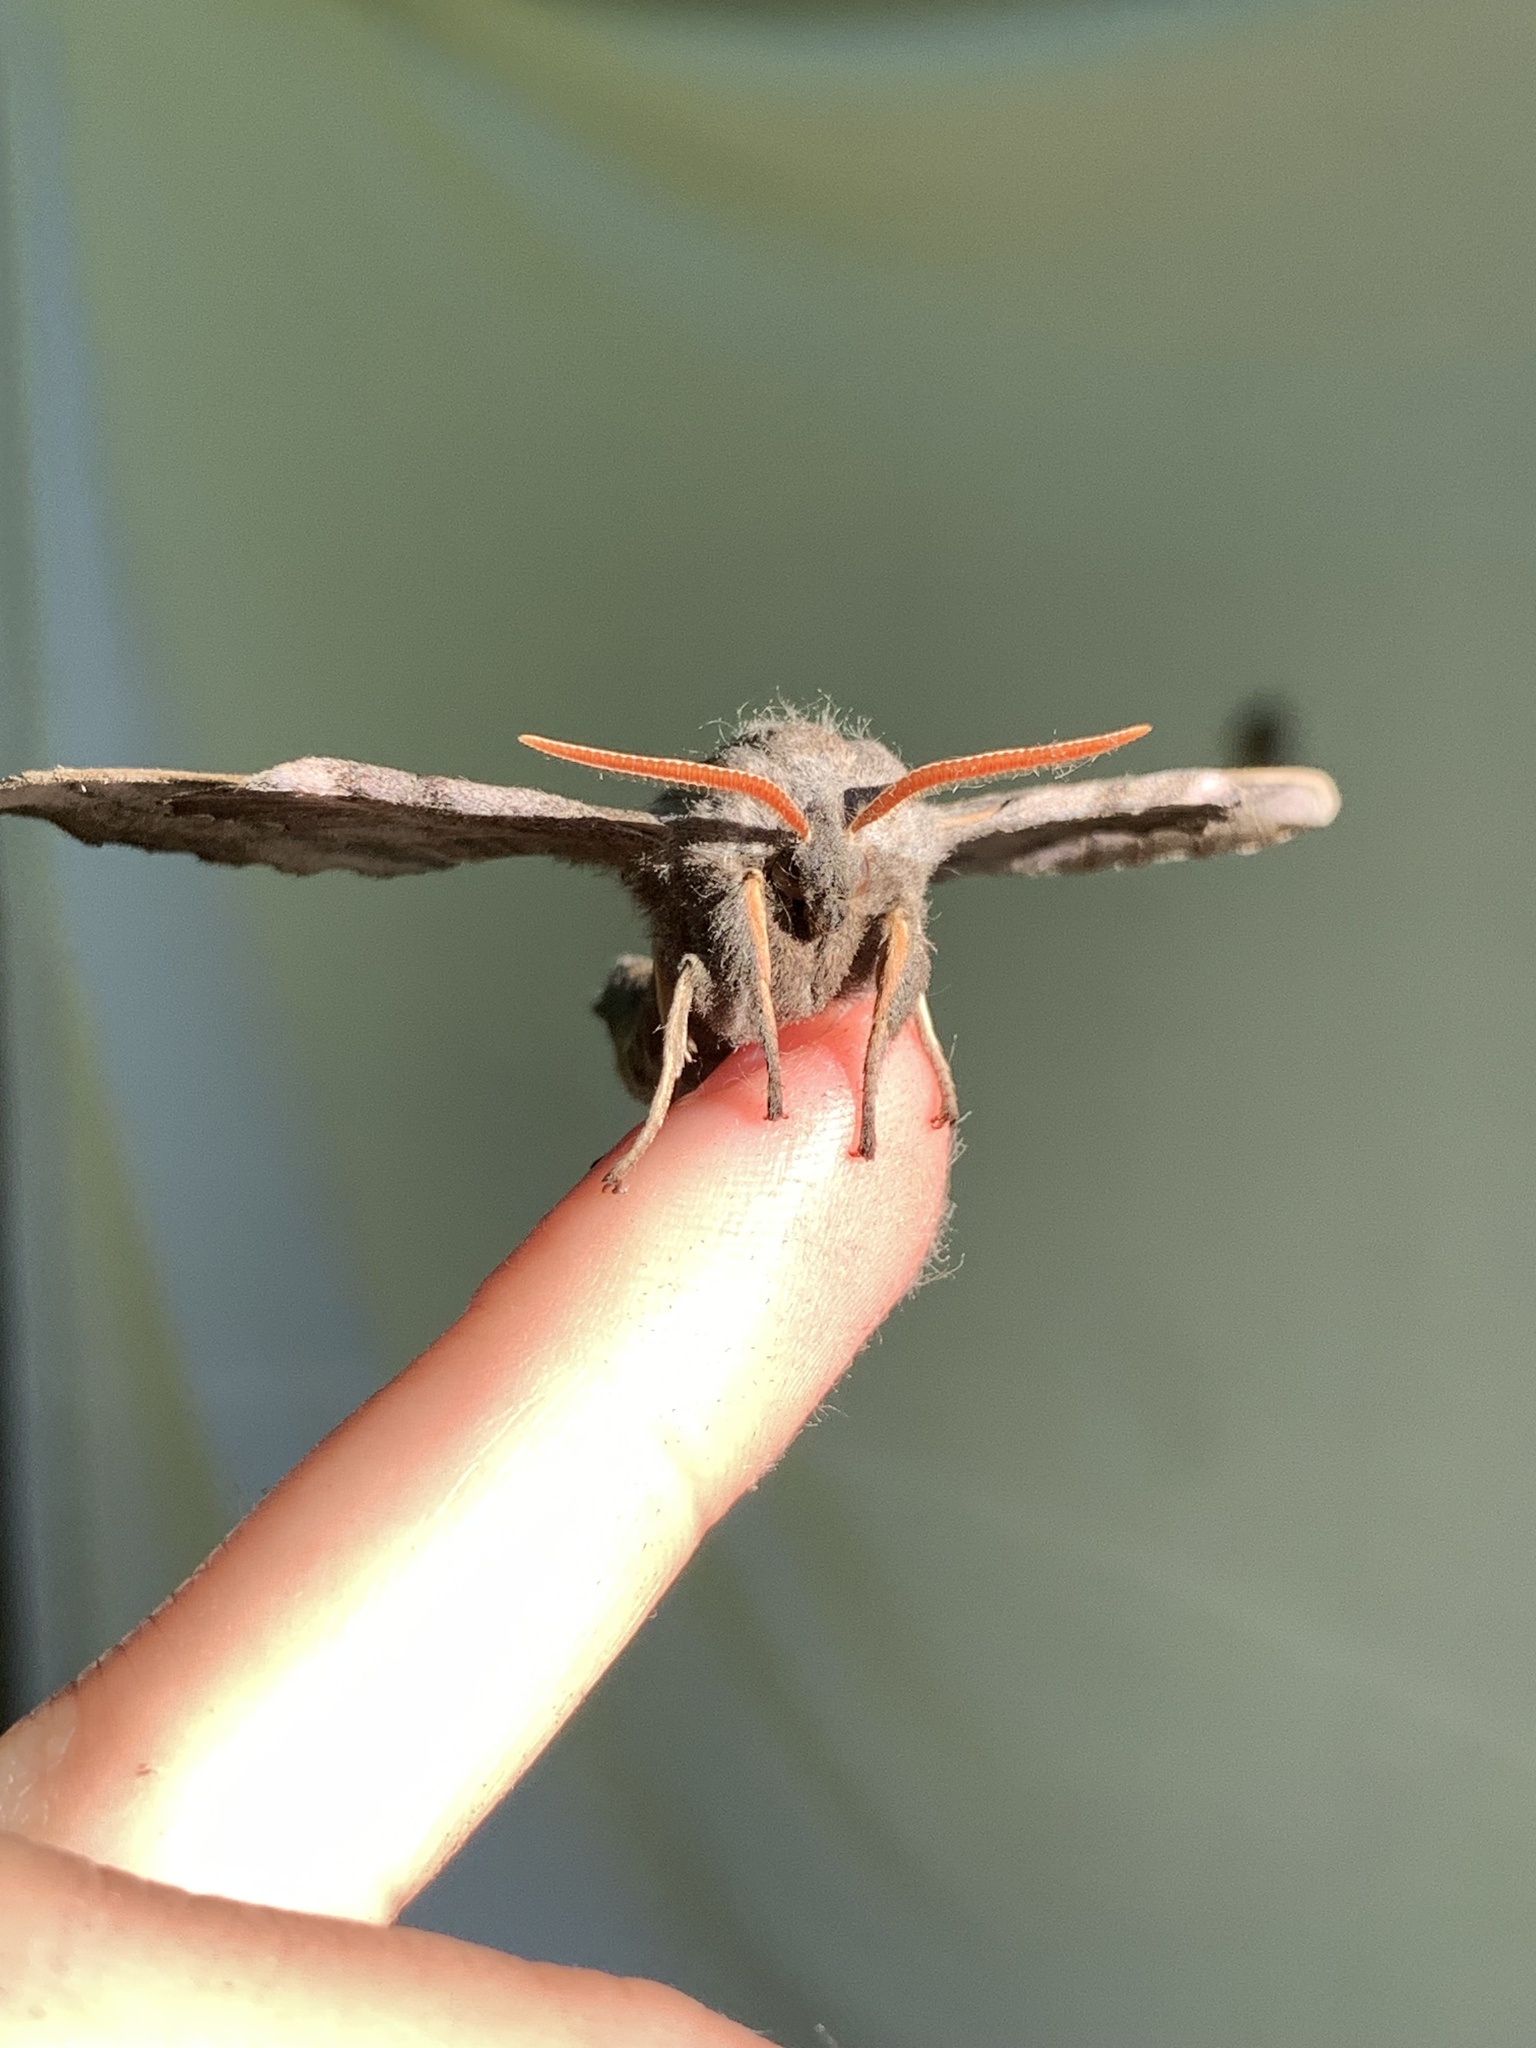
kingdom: Animalia
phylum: Arthropoda
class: Insecta
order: Lepidoptera
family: Sphingidae
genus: Laothoe
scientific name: Laothoe populi
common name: Poplar hawk-moth
